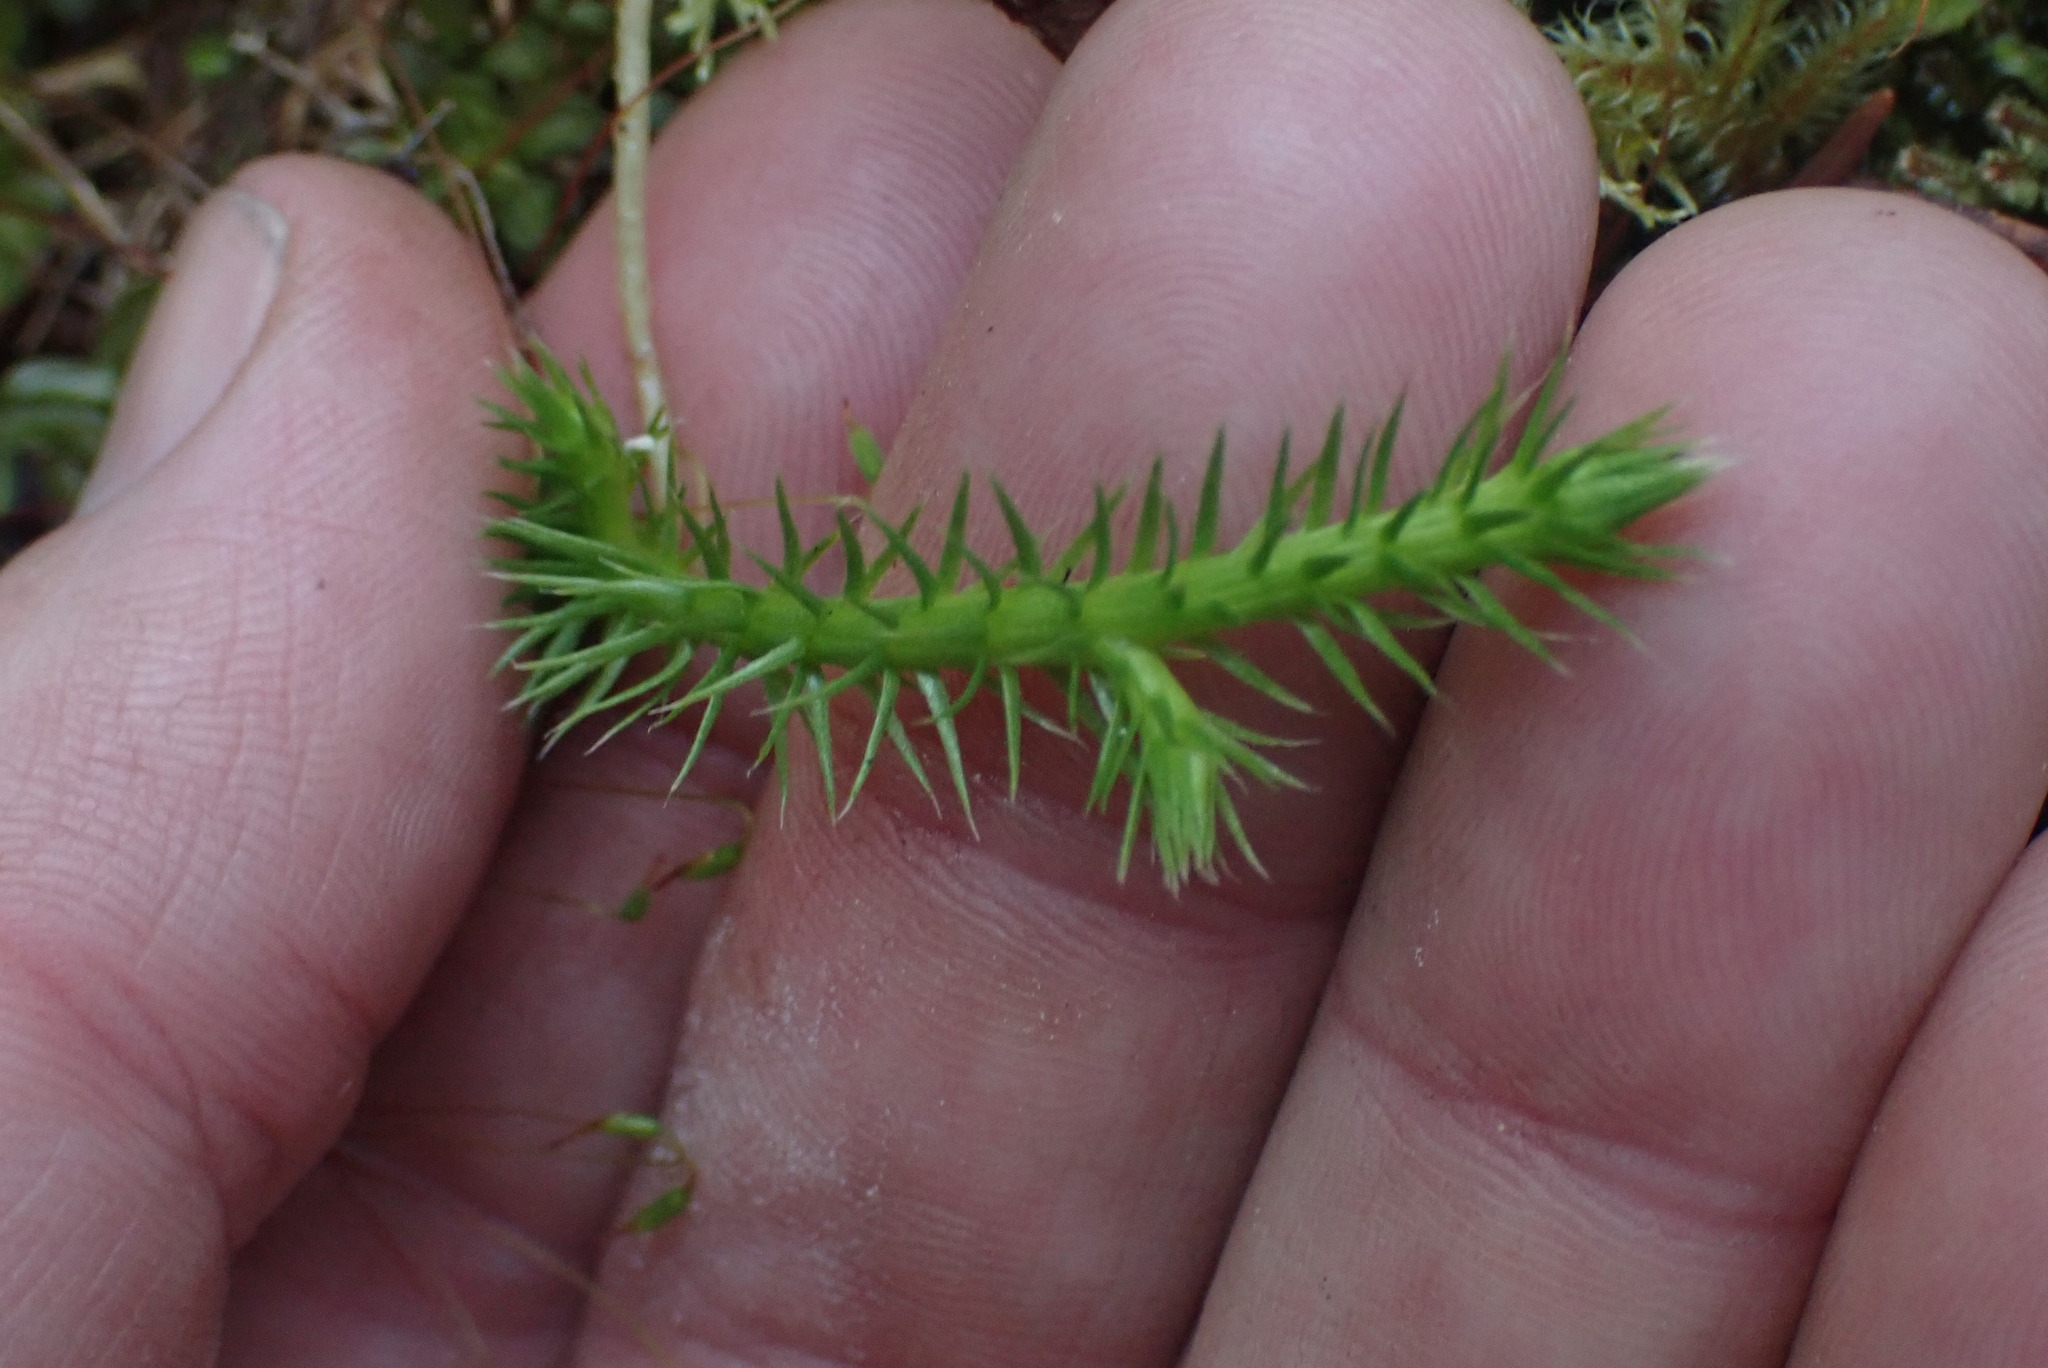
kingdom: Plantae
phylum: Tracheophyta
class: Lycopodiopsida
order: Lycopodiales
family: Lycopodiaceae
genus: Lycopodium
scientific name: Lycopodium clavatum
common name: Stag's-horn clubmoss
